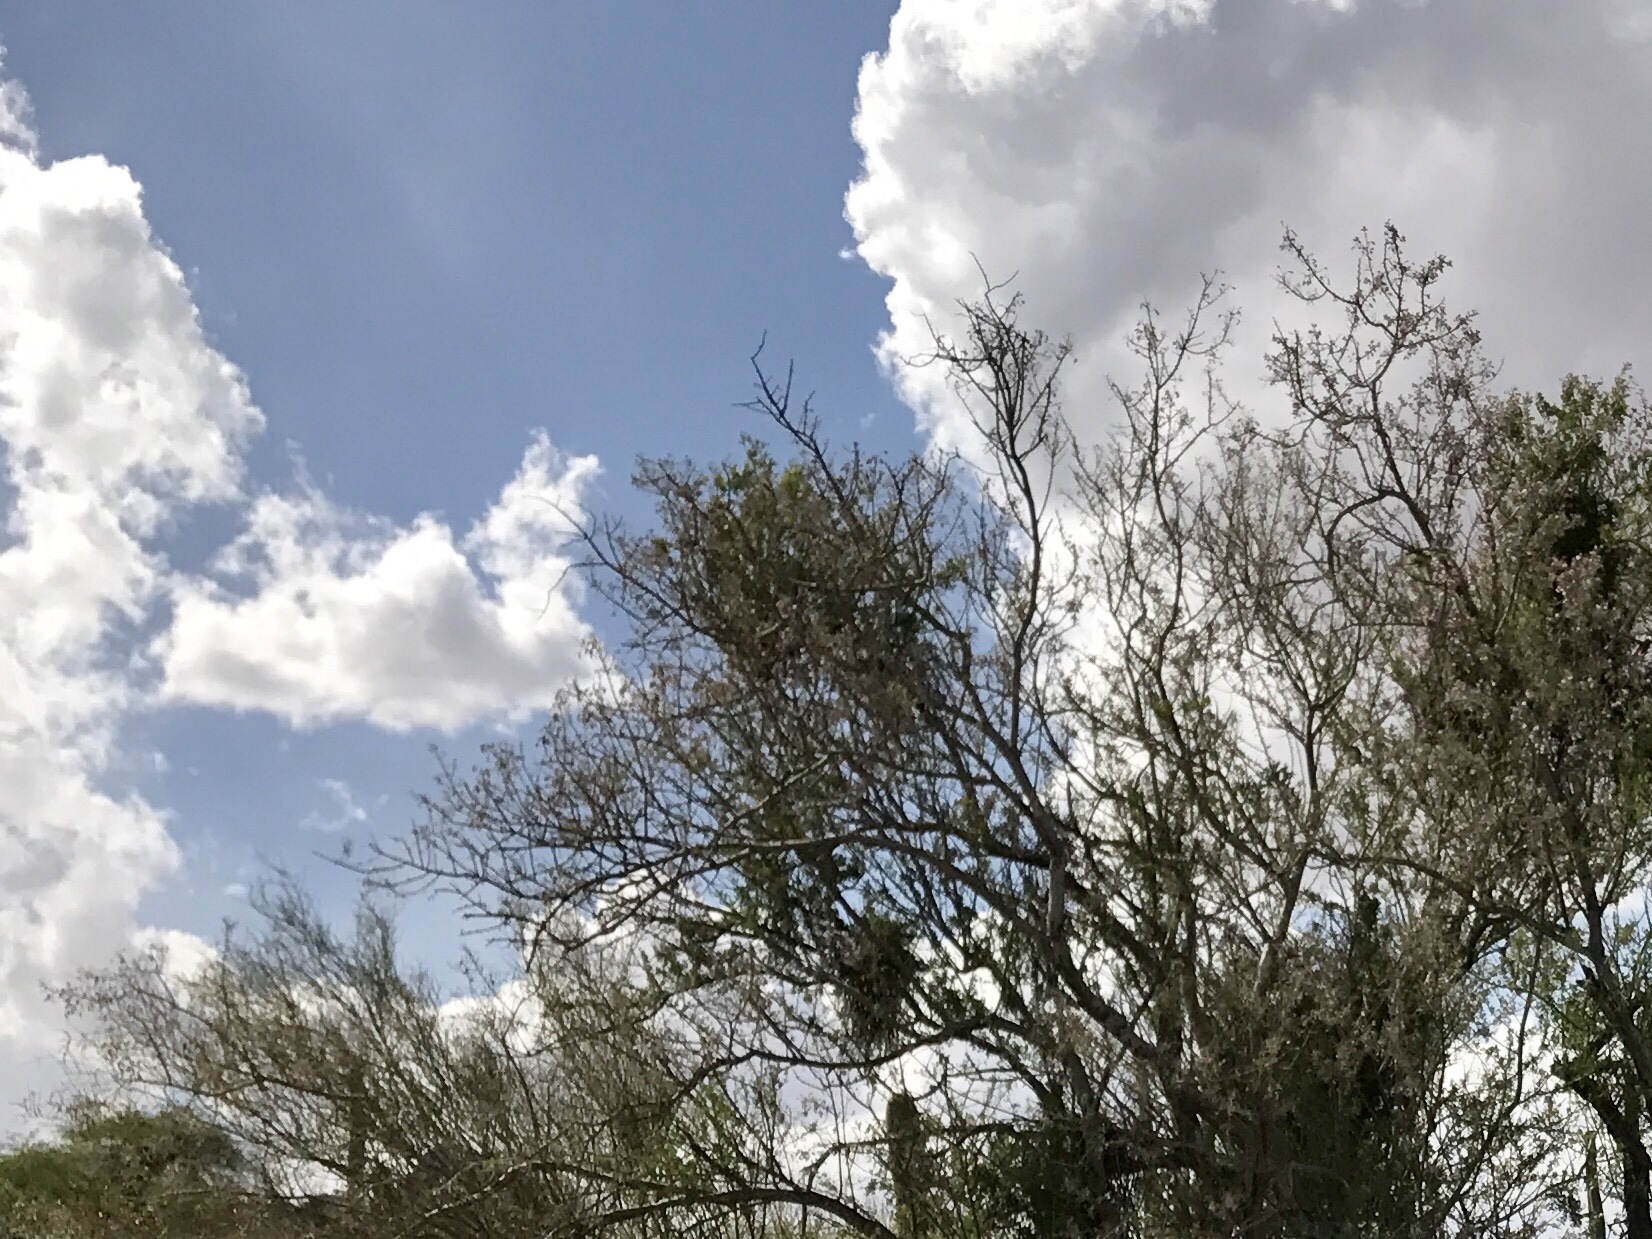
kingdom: Plantae
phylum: Tracheophyta
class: Magnoliopsida
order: Santalales
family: Viscaceae
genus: Phoradendron
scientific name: Phoradendron californicum
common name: Acacia mistletoe
